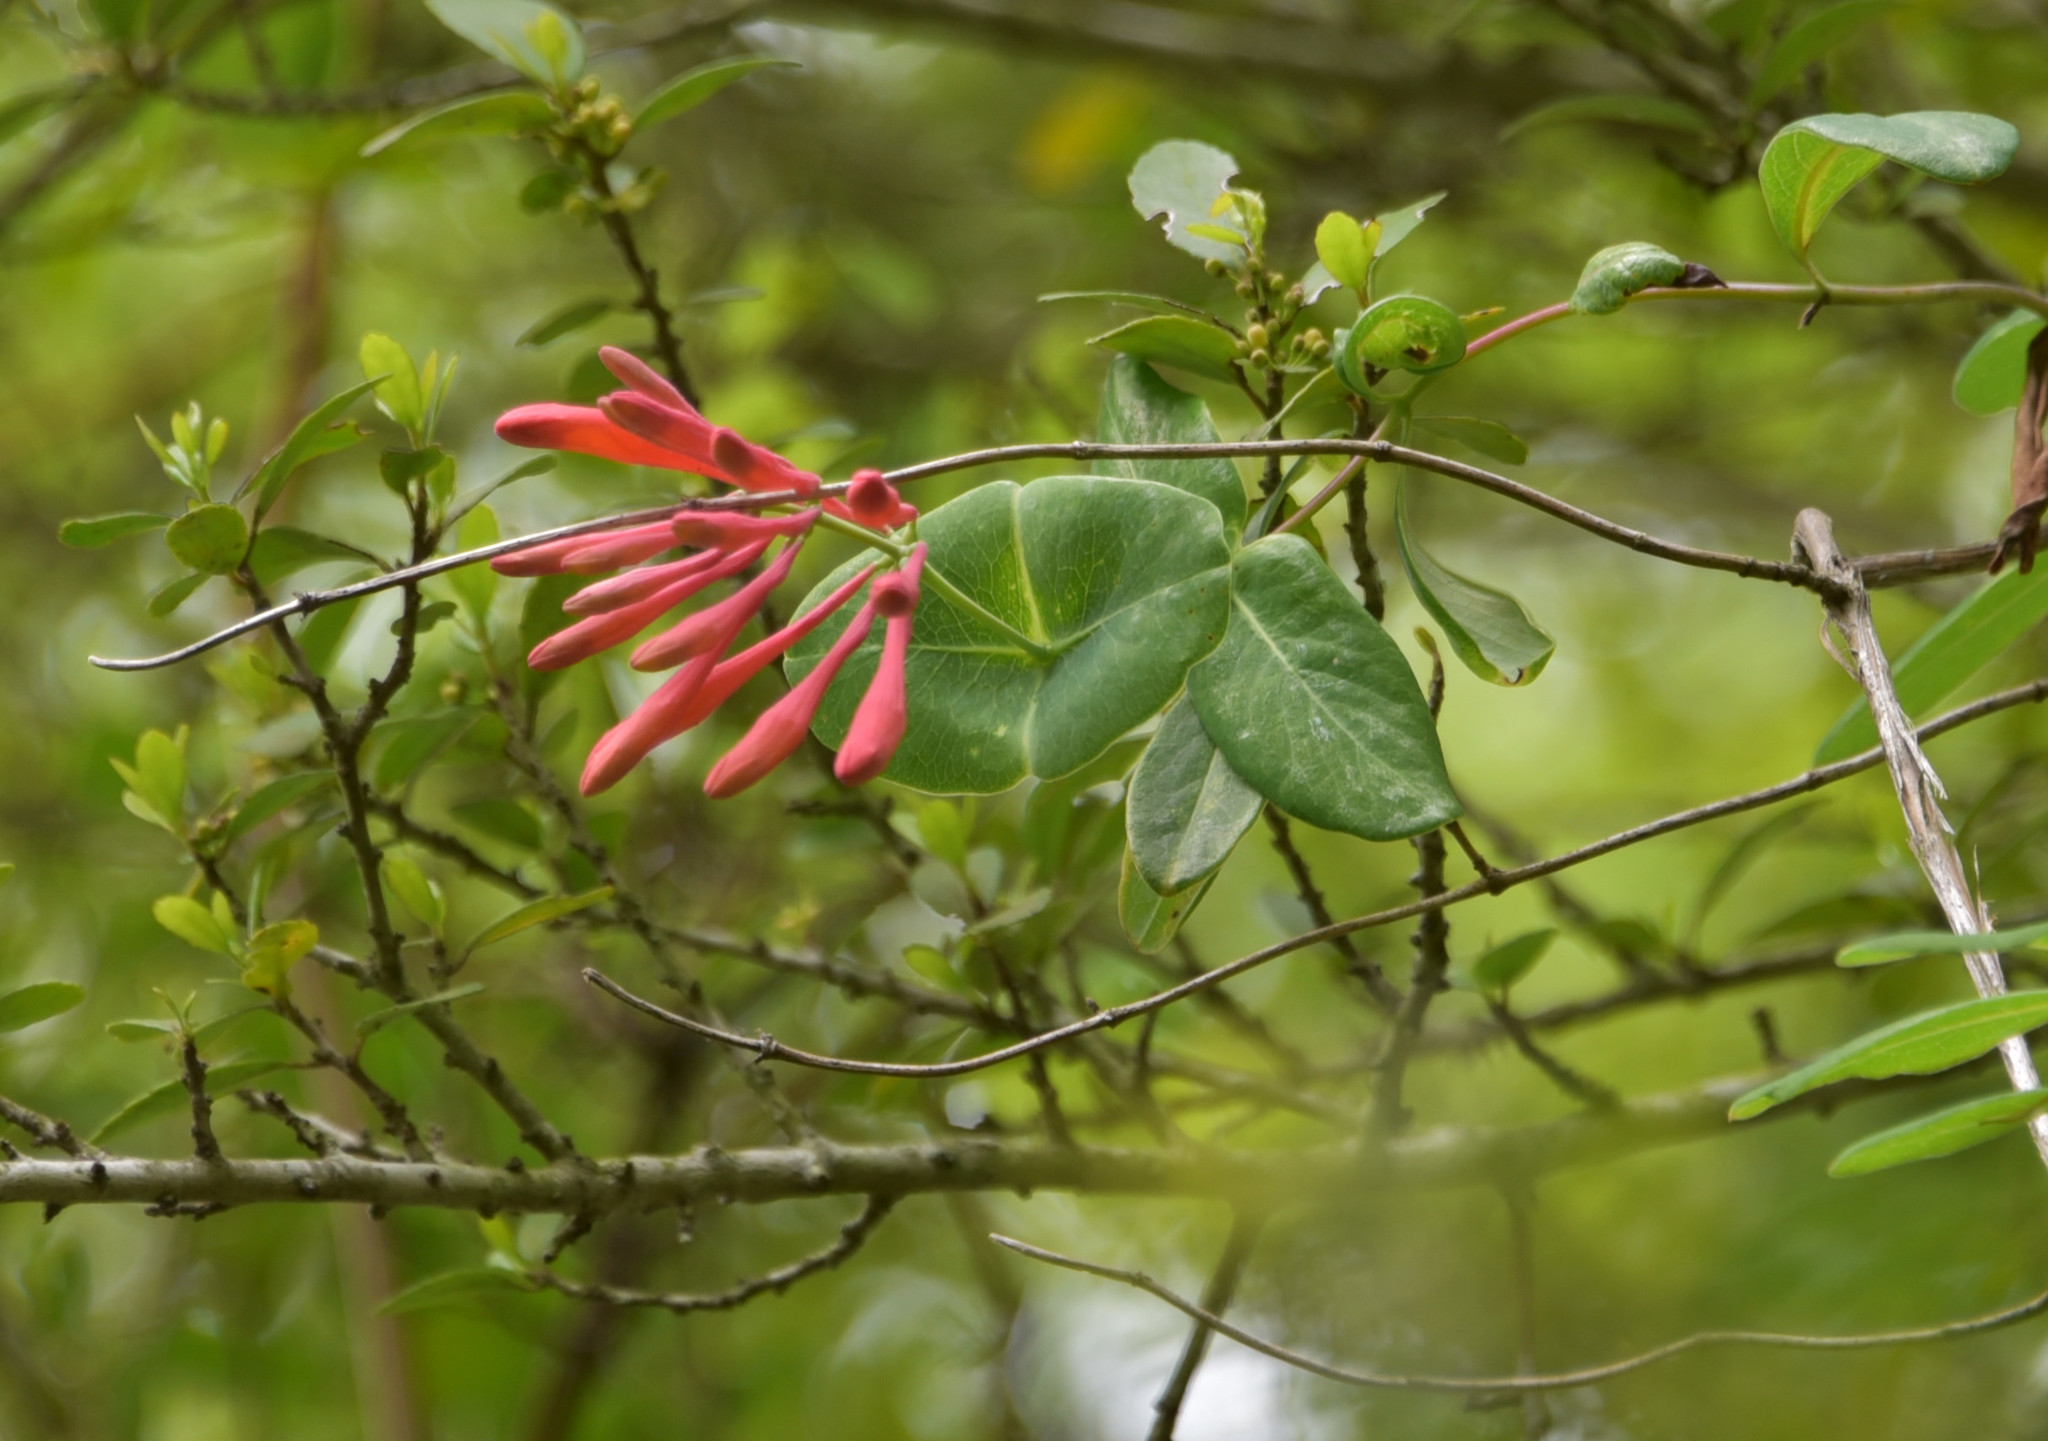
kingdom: Plantae
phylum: Tracheophyta
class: Magnoliopsida
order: Dipsacales
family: Caprifoliaceae
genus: Lonicera
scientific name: Lonicera sempervirens
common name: Coral honeysuckle
